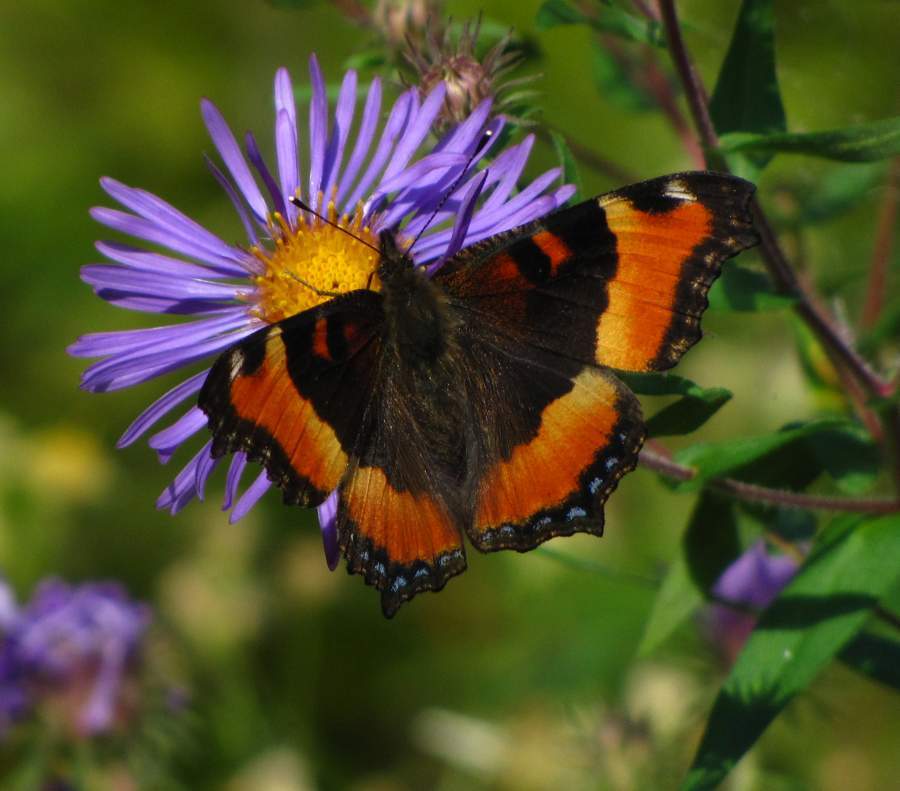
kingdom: Animalia
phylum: Arthropoda
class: Insecta
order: Lepidoptera
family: Nymphalidae
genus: Aglais
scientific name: Aglais milberti
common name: Milbert's tortoiseshell
